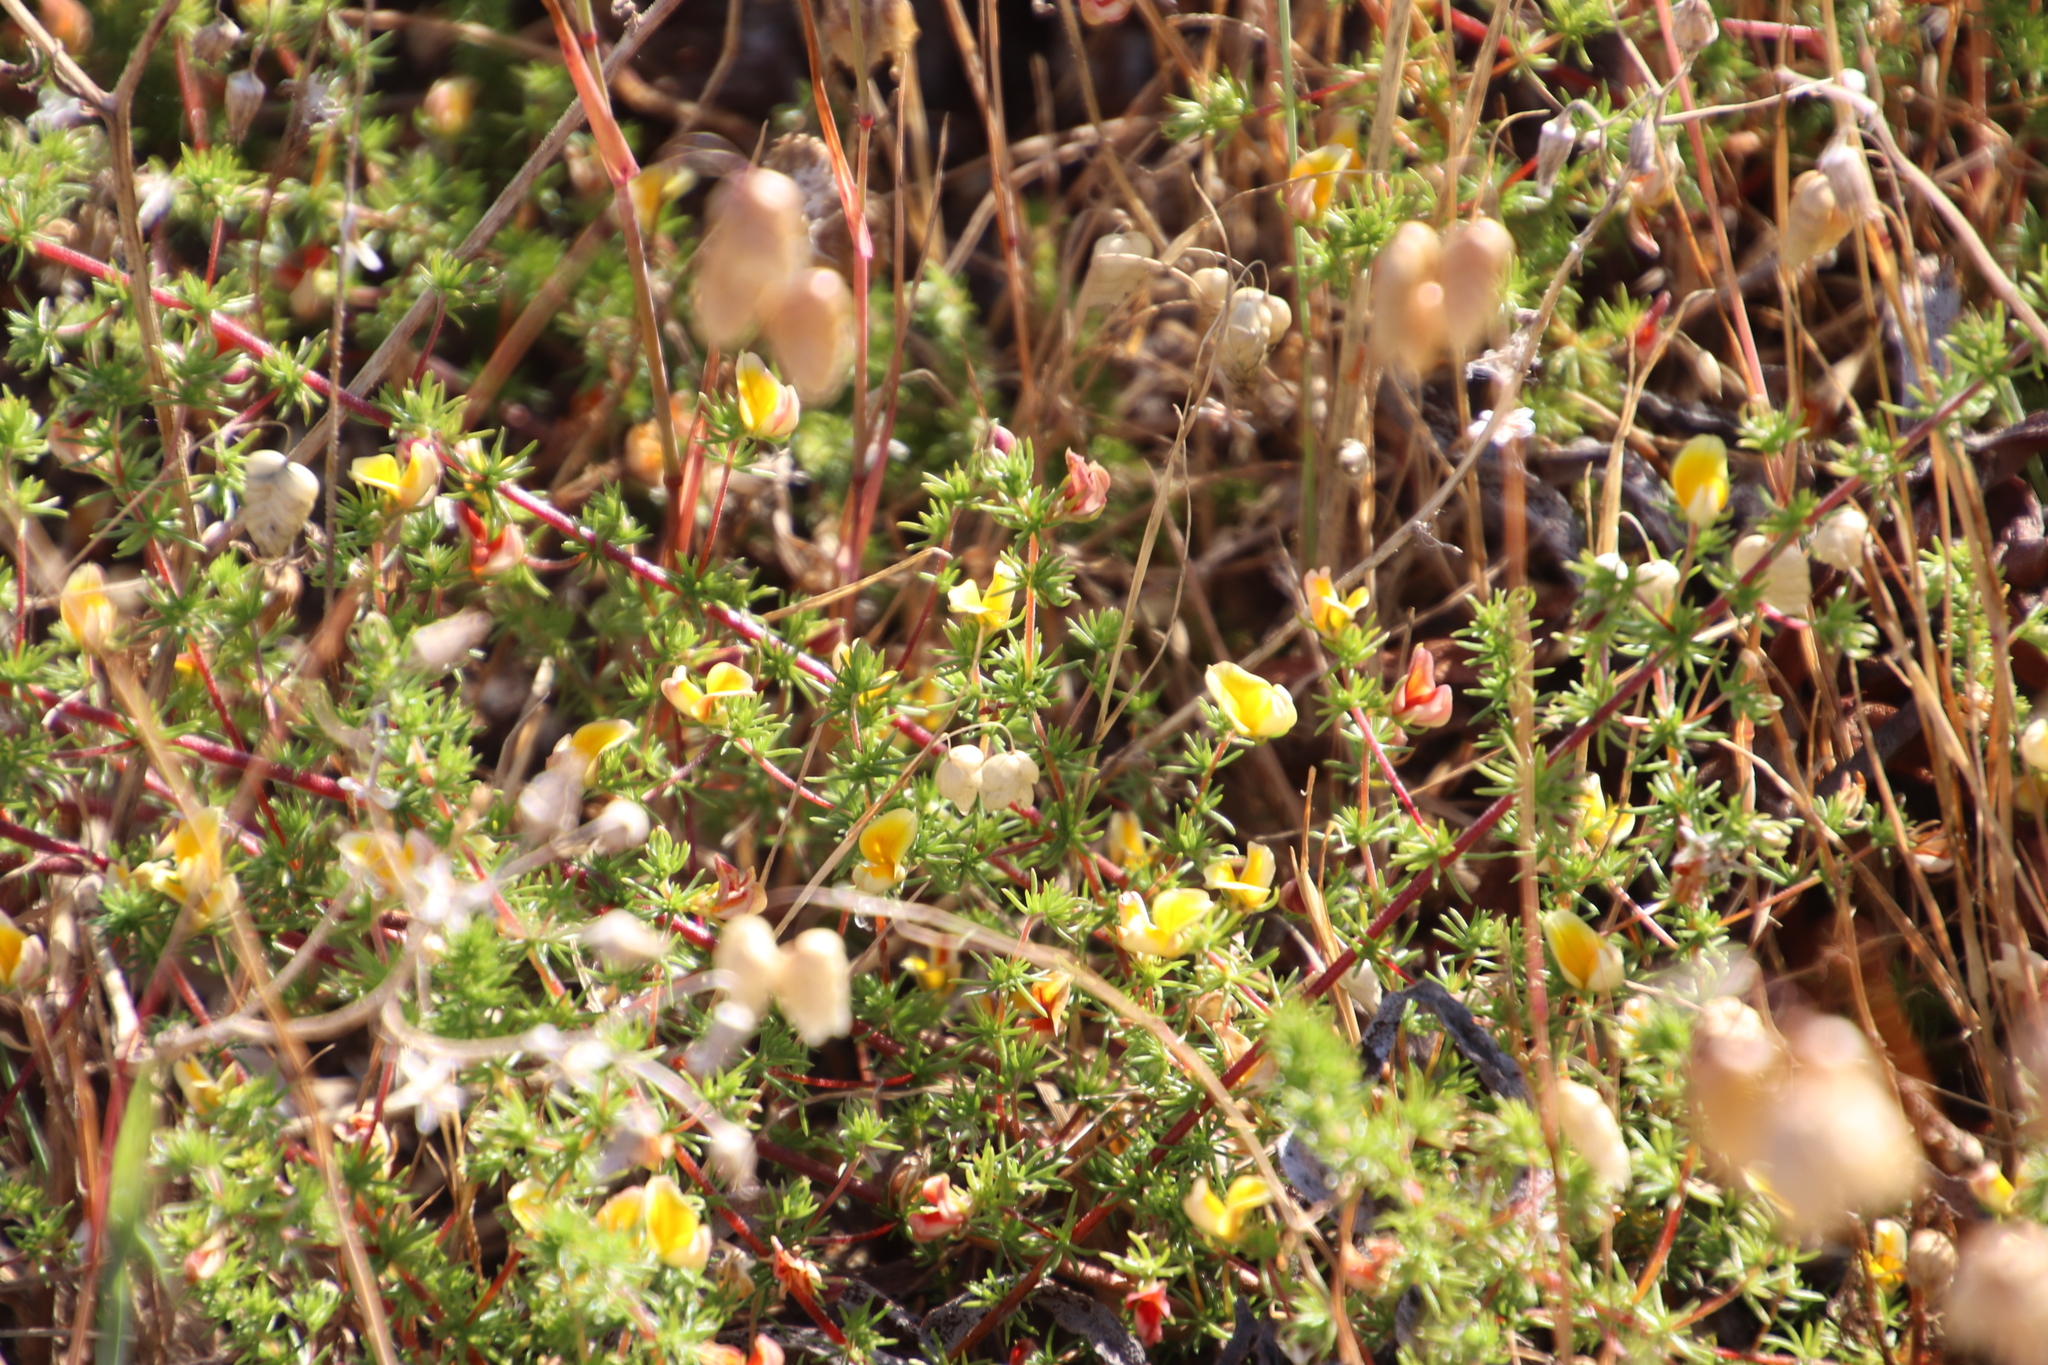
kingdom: Plantae
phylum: Tracheophyta
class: Magnoliopsida
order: Fabales
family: Fabaceae
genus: Aspalathus
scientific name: Aspalathus retroflexa
